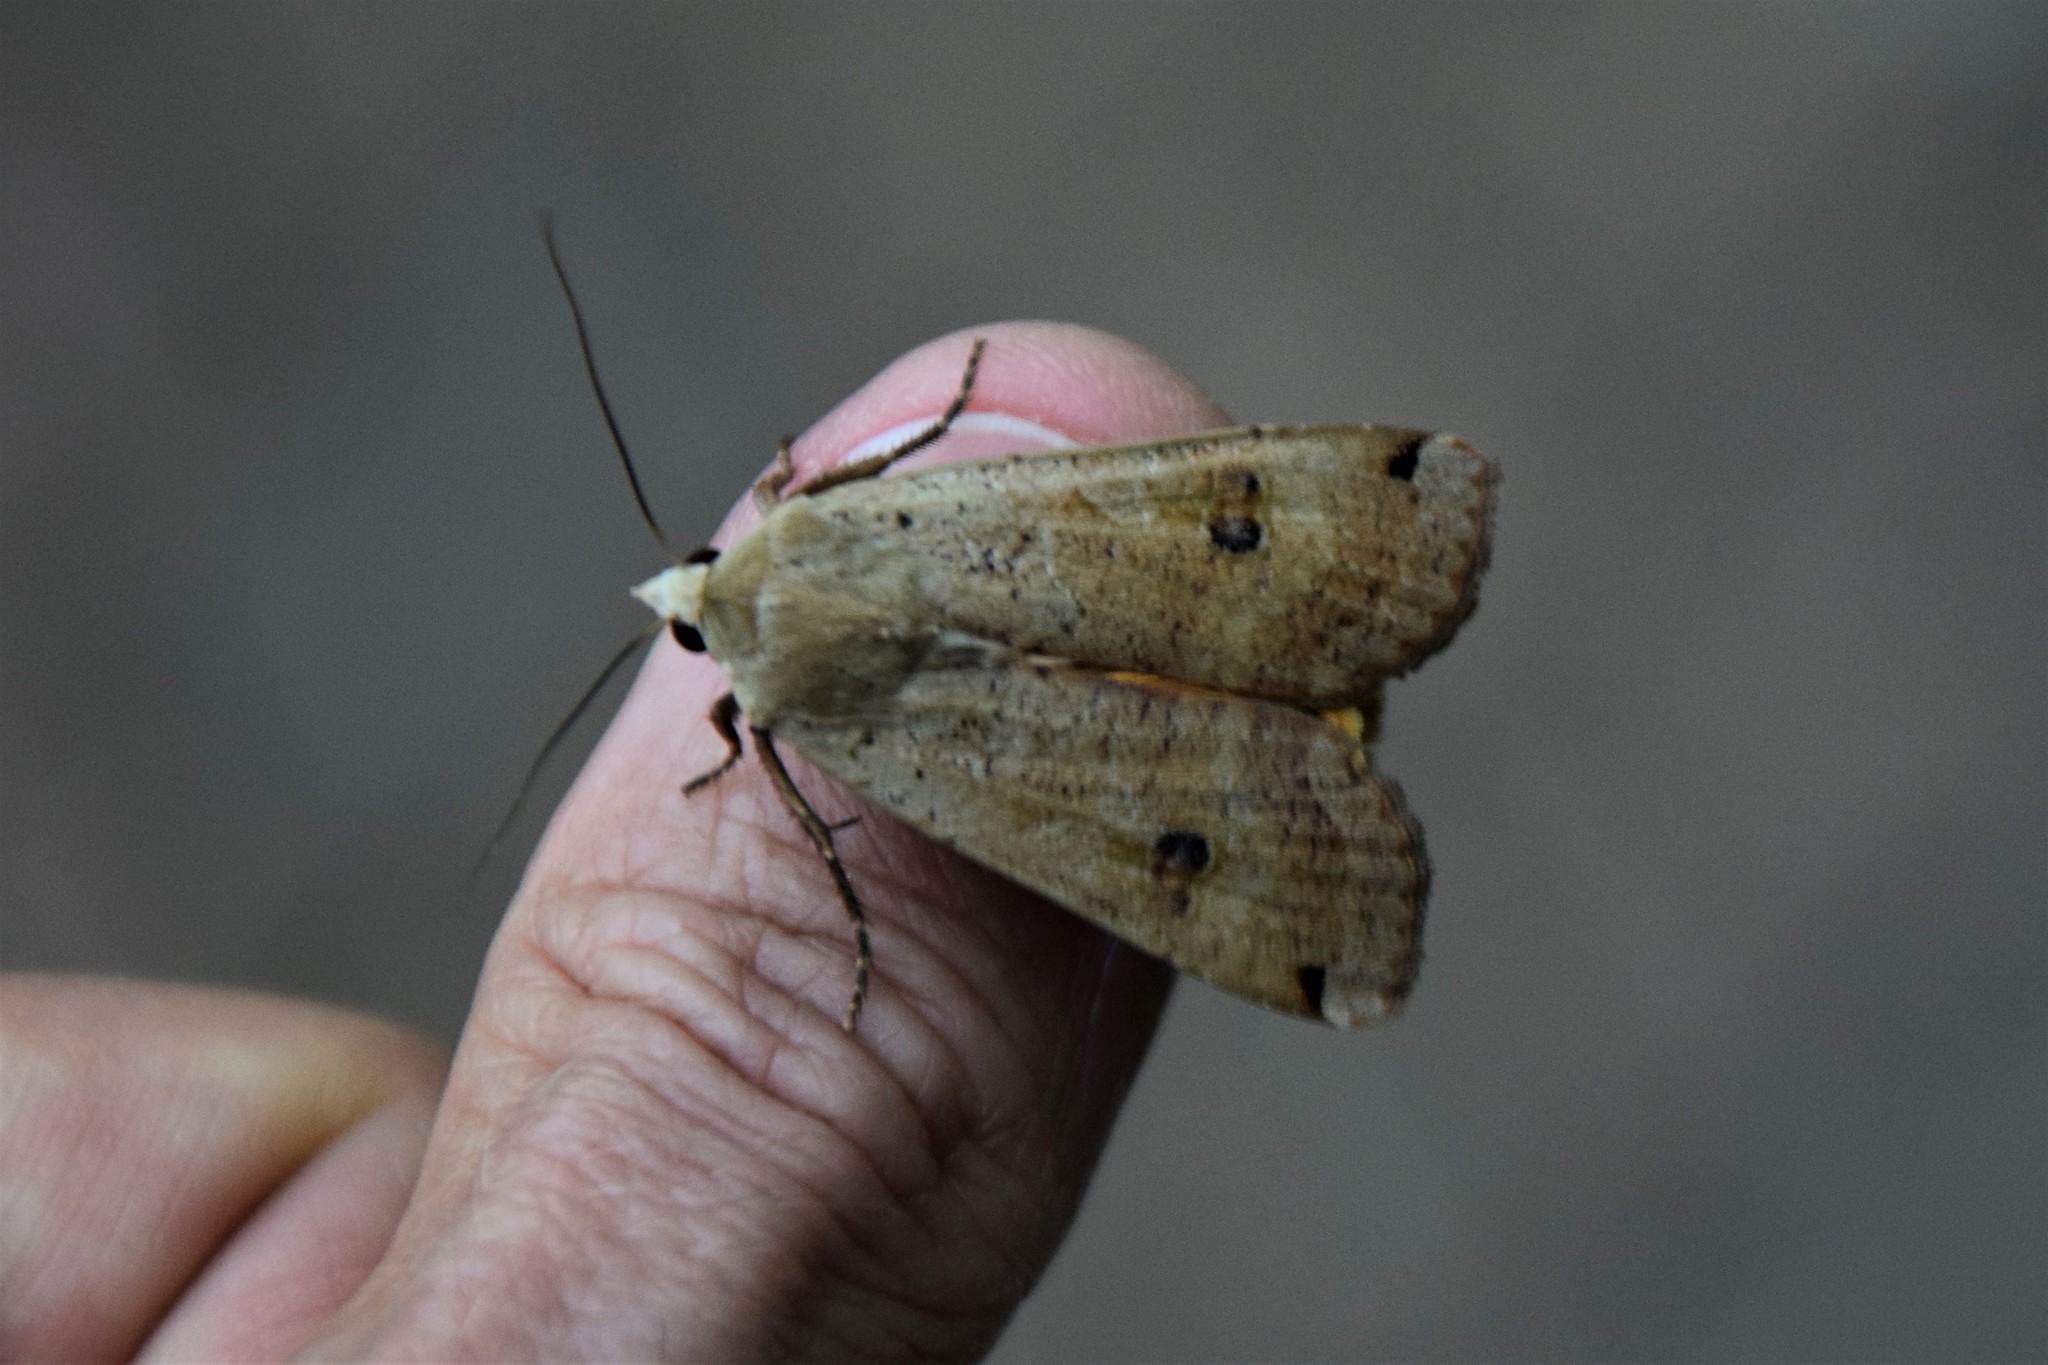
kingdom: Animalia
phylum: Arthropoda
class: Insecta
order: Lepidoptera
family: Noctuidae
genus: Noctua
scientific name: Noctua pronuba
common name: Large yellow underwing
